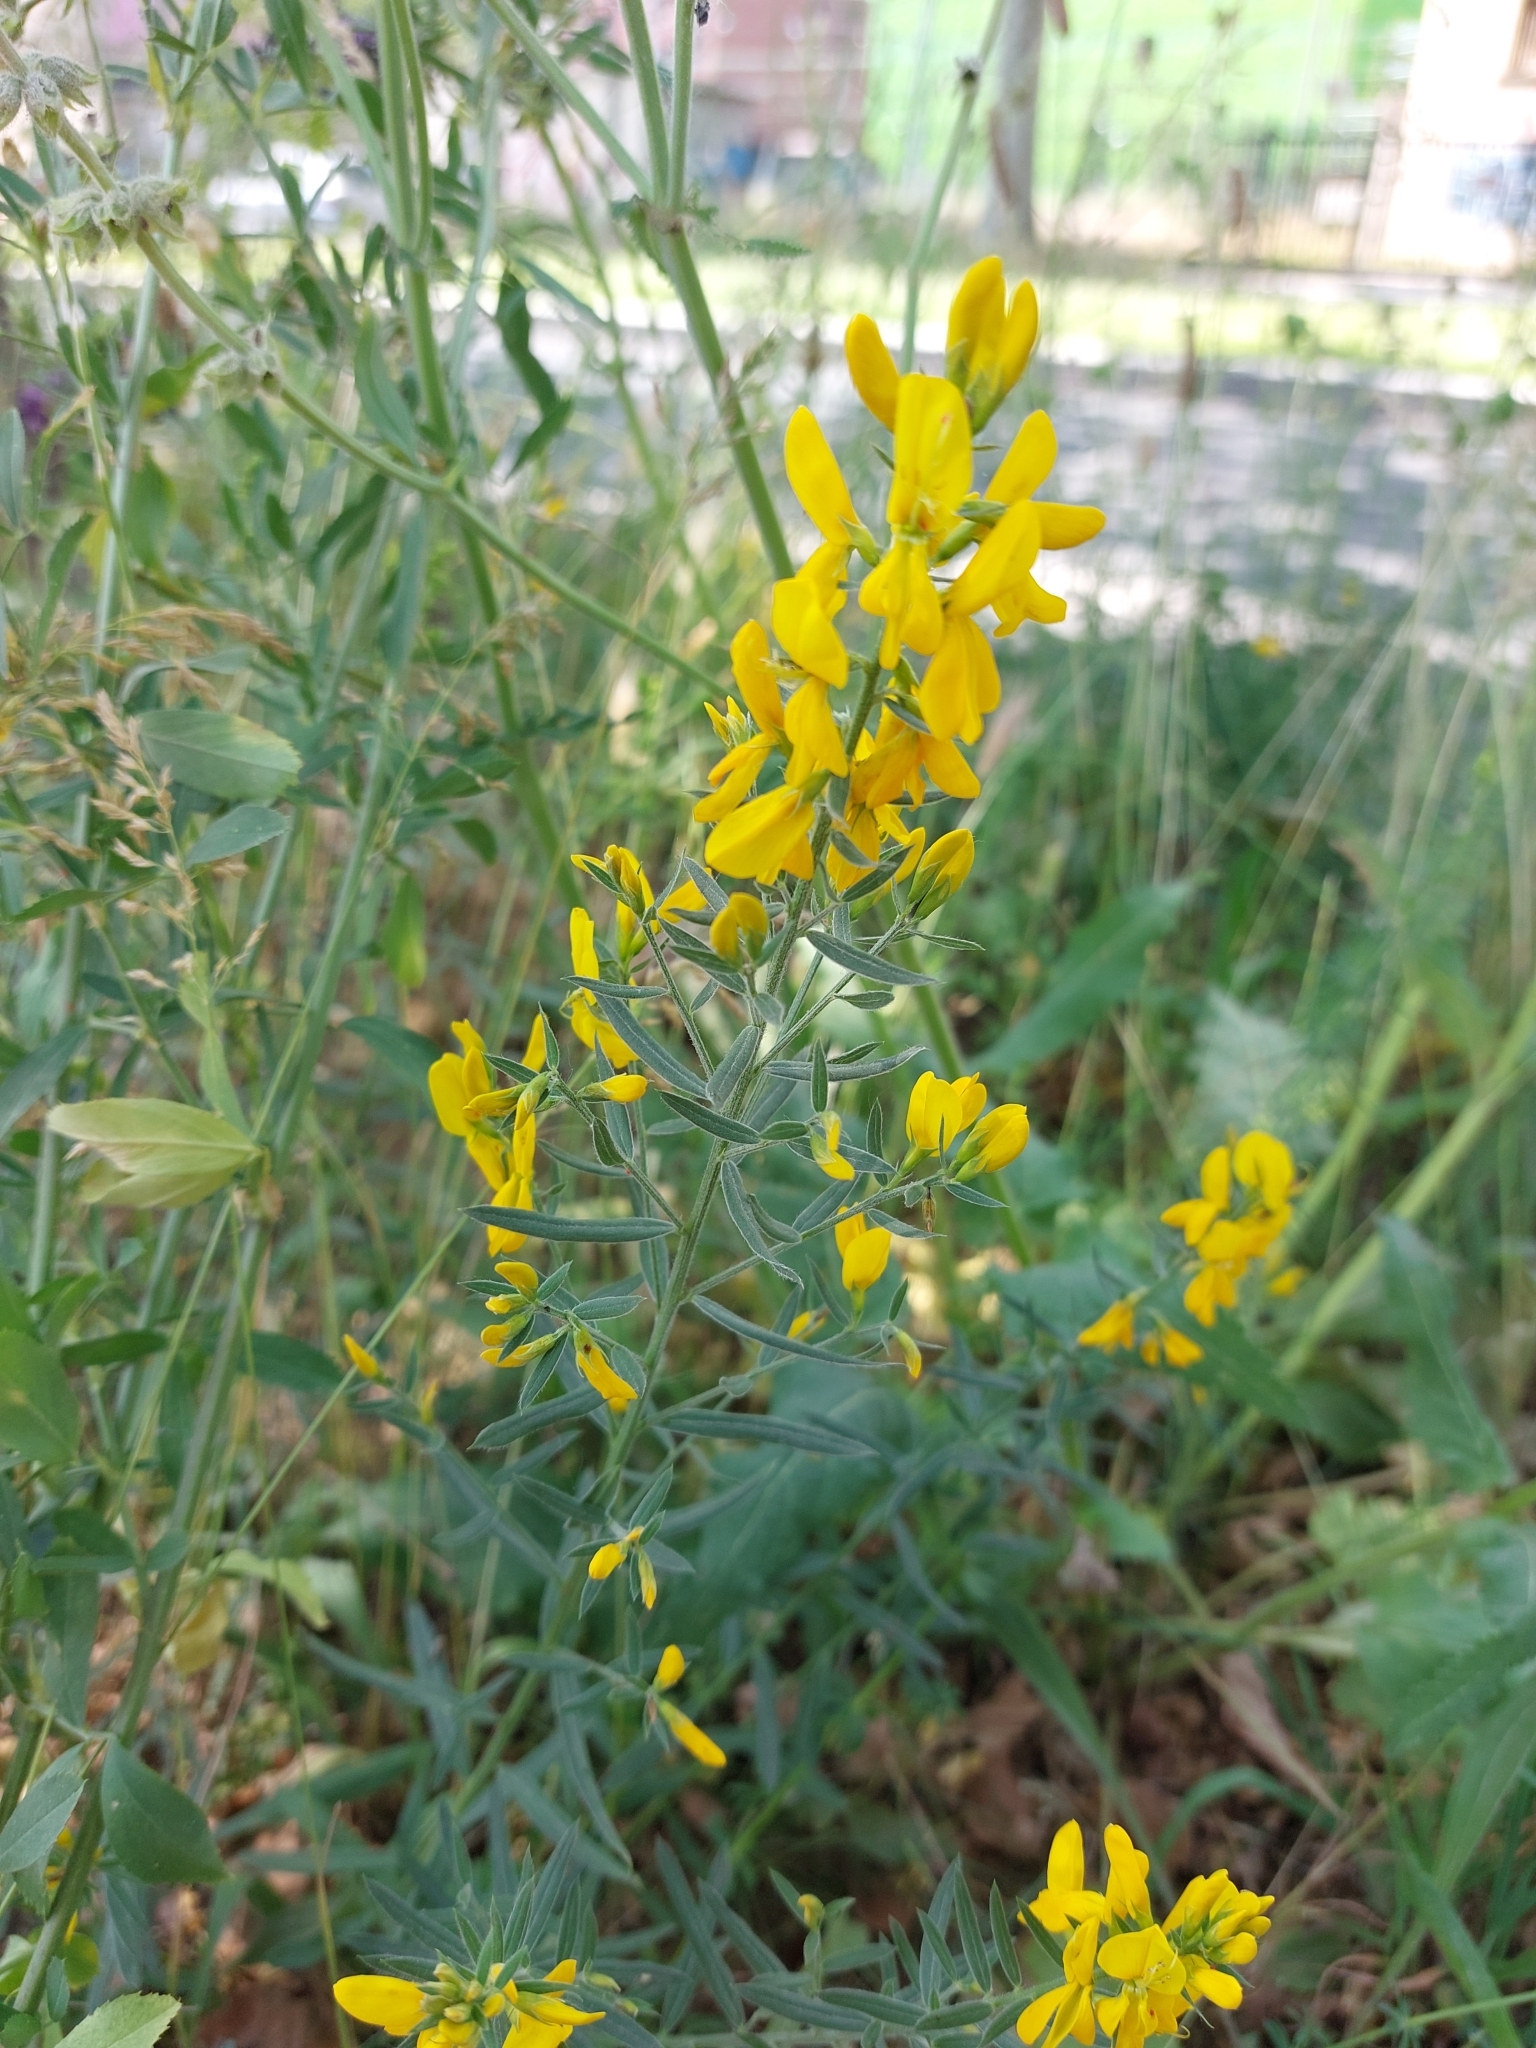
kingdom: Plantae
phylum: Tracheophyta
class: Magnoliopsida
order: Fabales
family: Fabaceae
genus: Genista
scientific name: Genista tinctoria
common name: Dyer's greenweed
